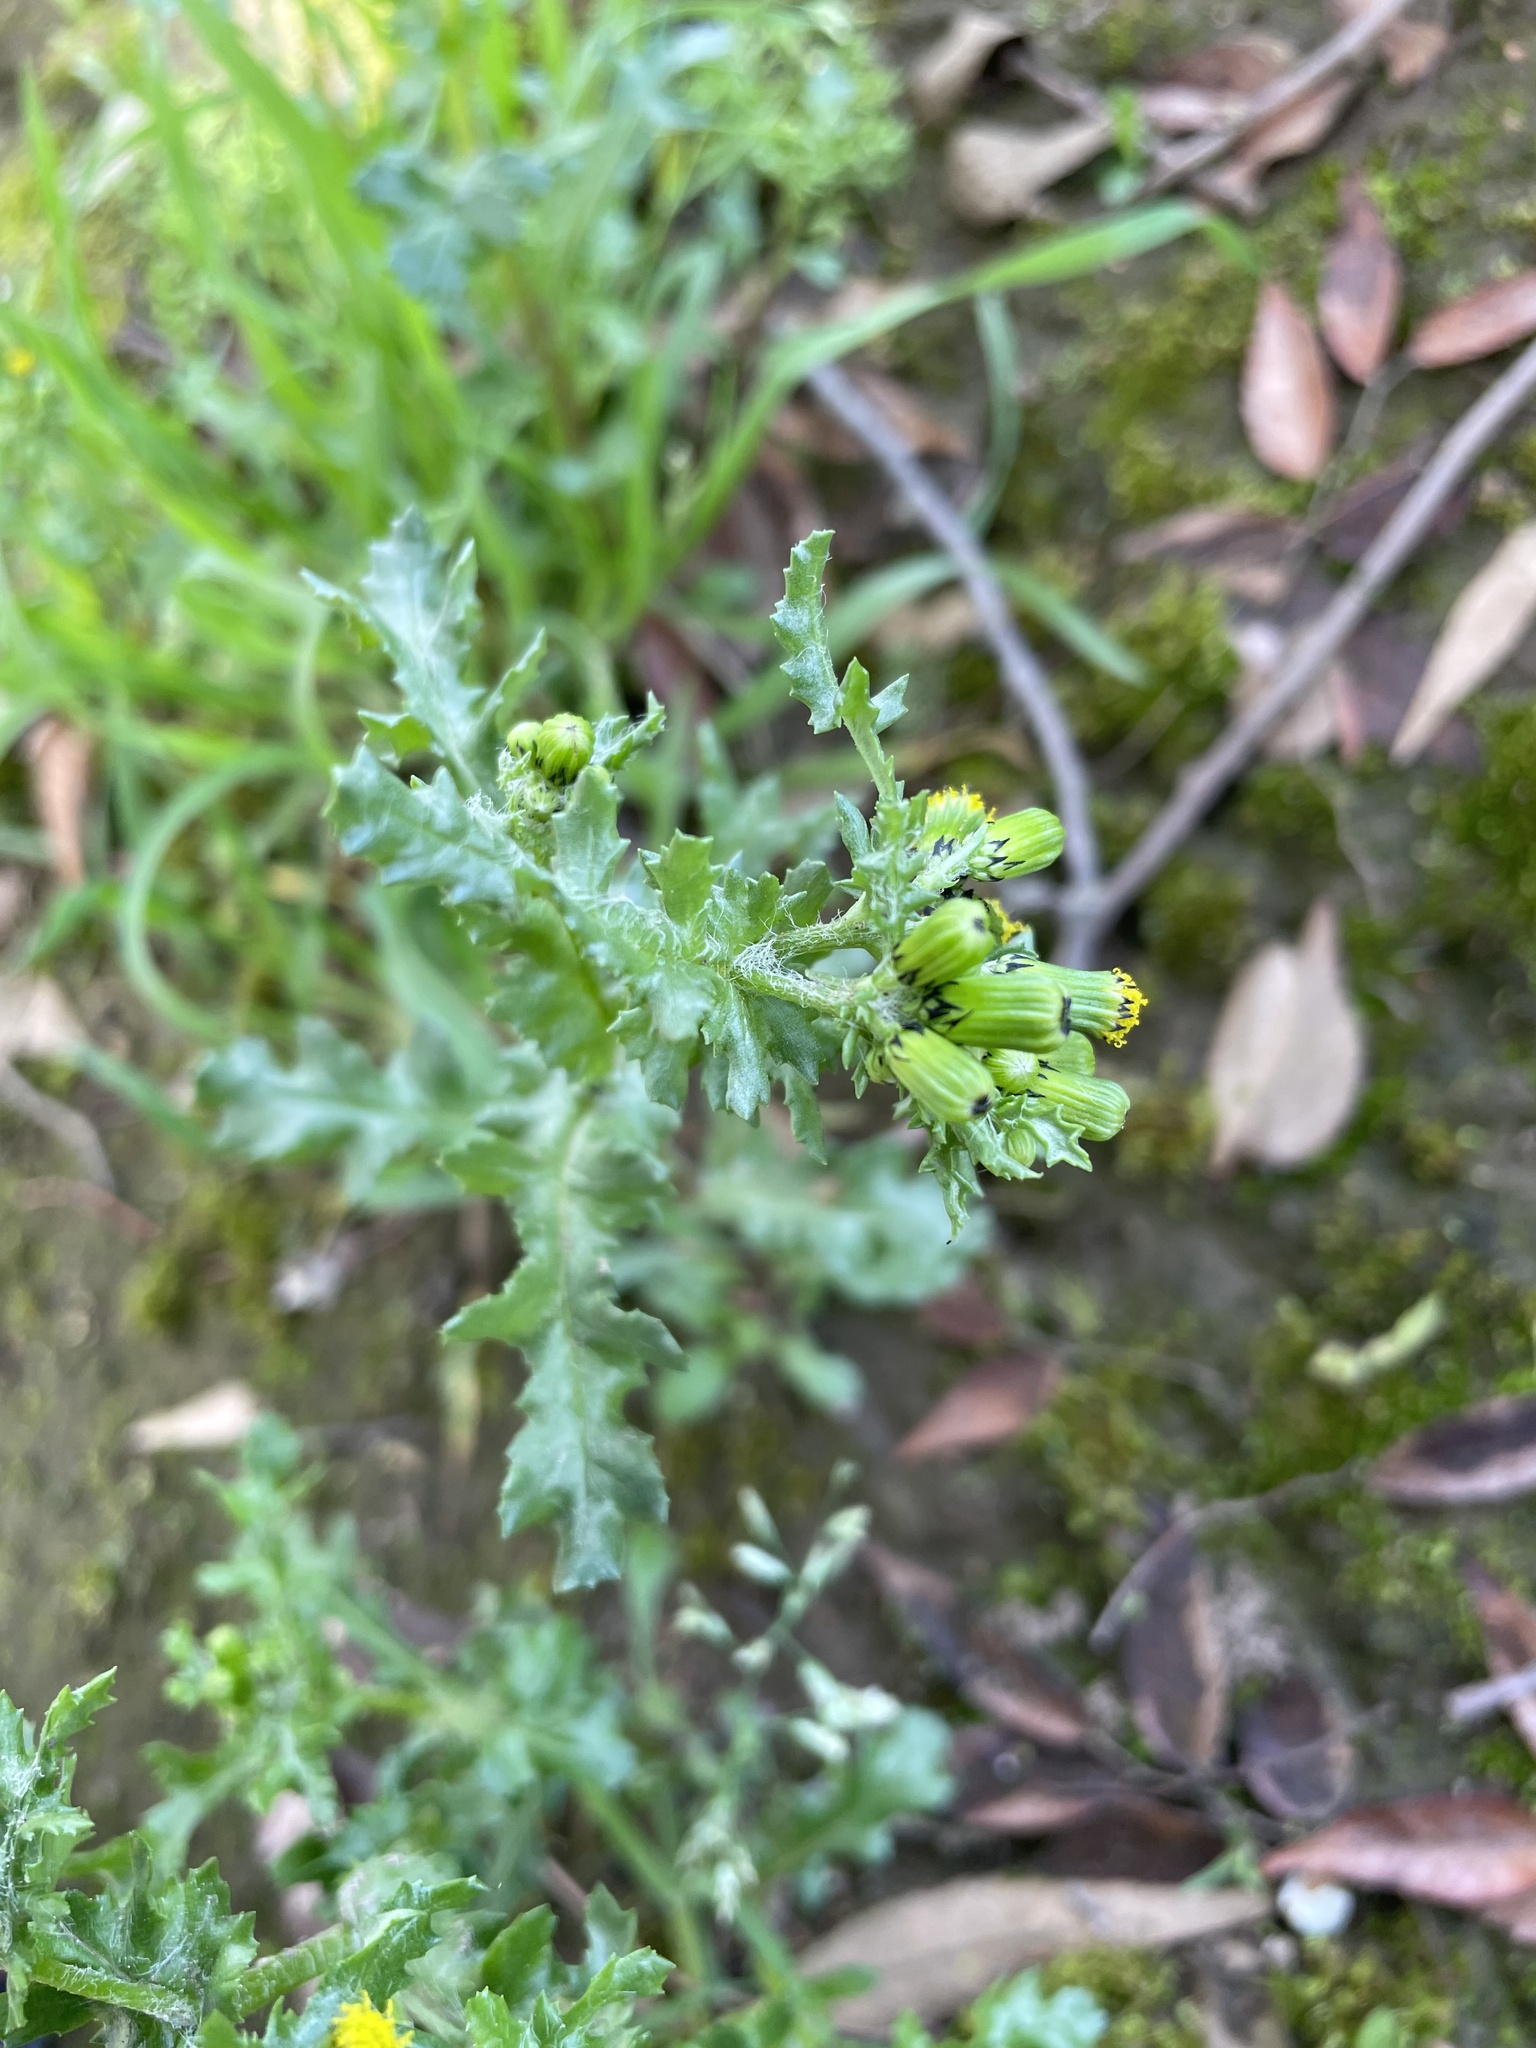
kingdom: Plantae
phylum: Tracheophyta
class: Magnoliopsida
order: Asterales
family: Asteraceae
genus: Senecio
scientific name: Senecio vulgaris
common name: Old-man-in-the-spring
